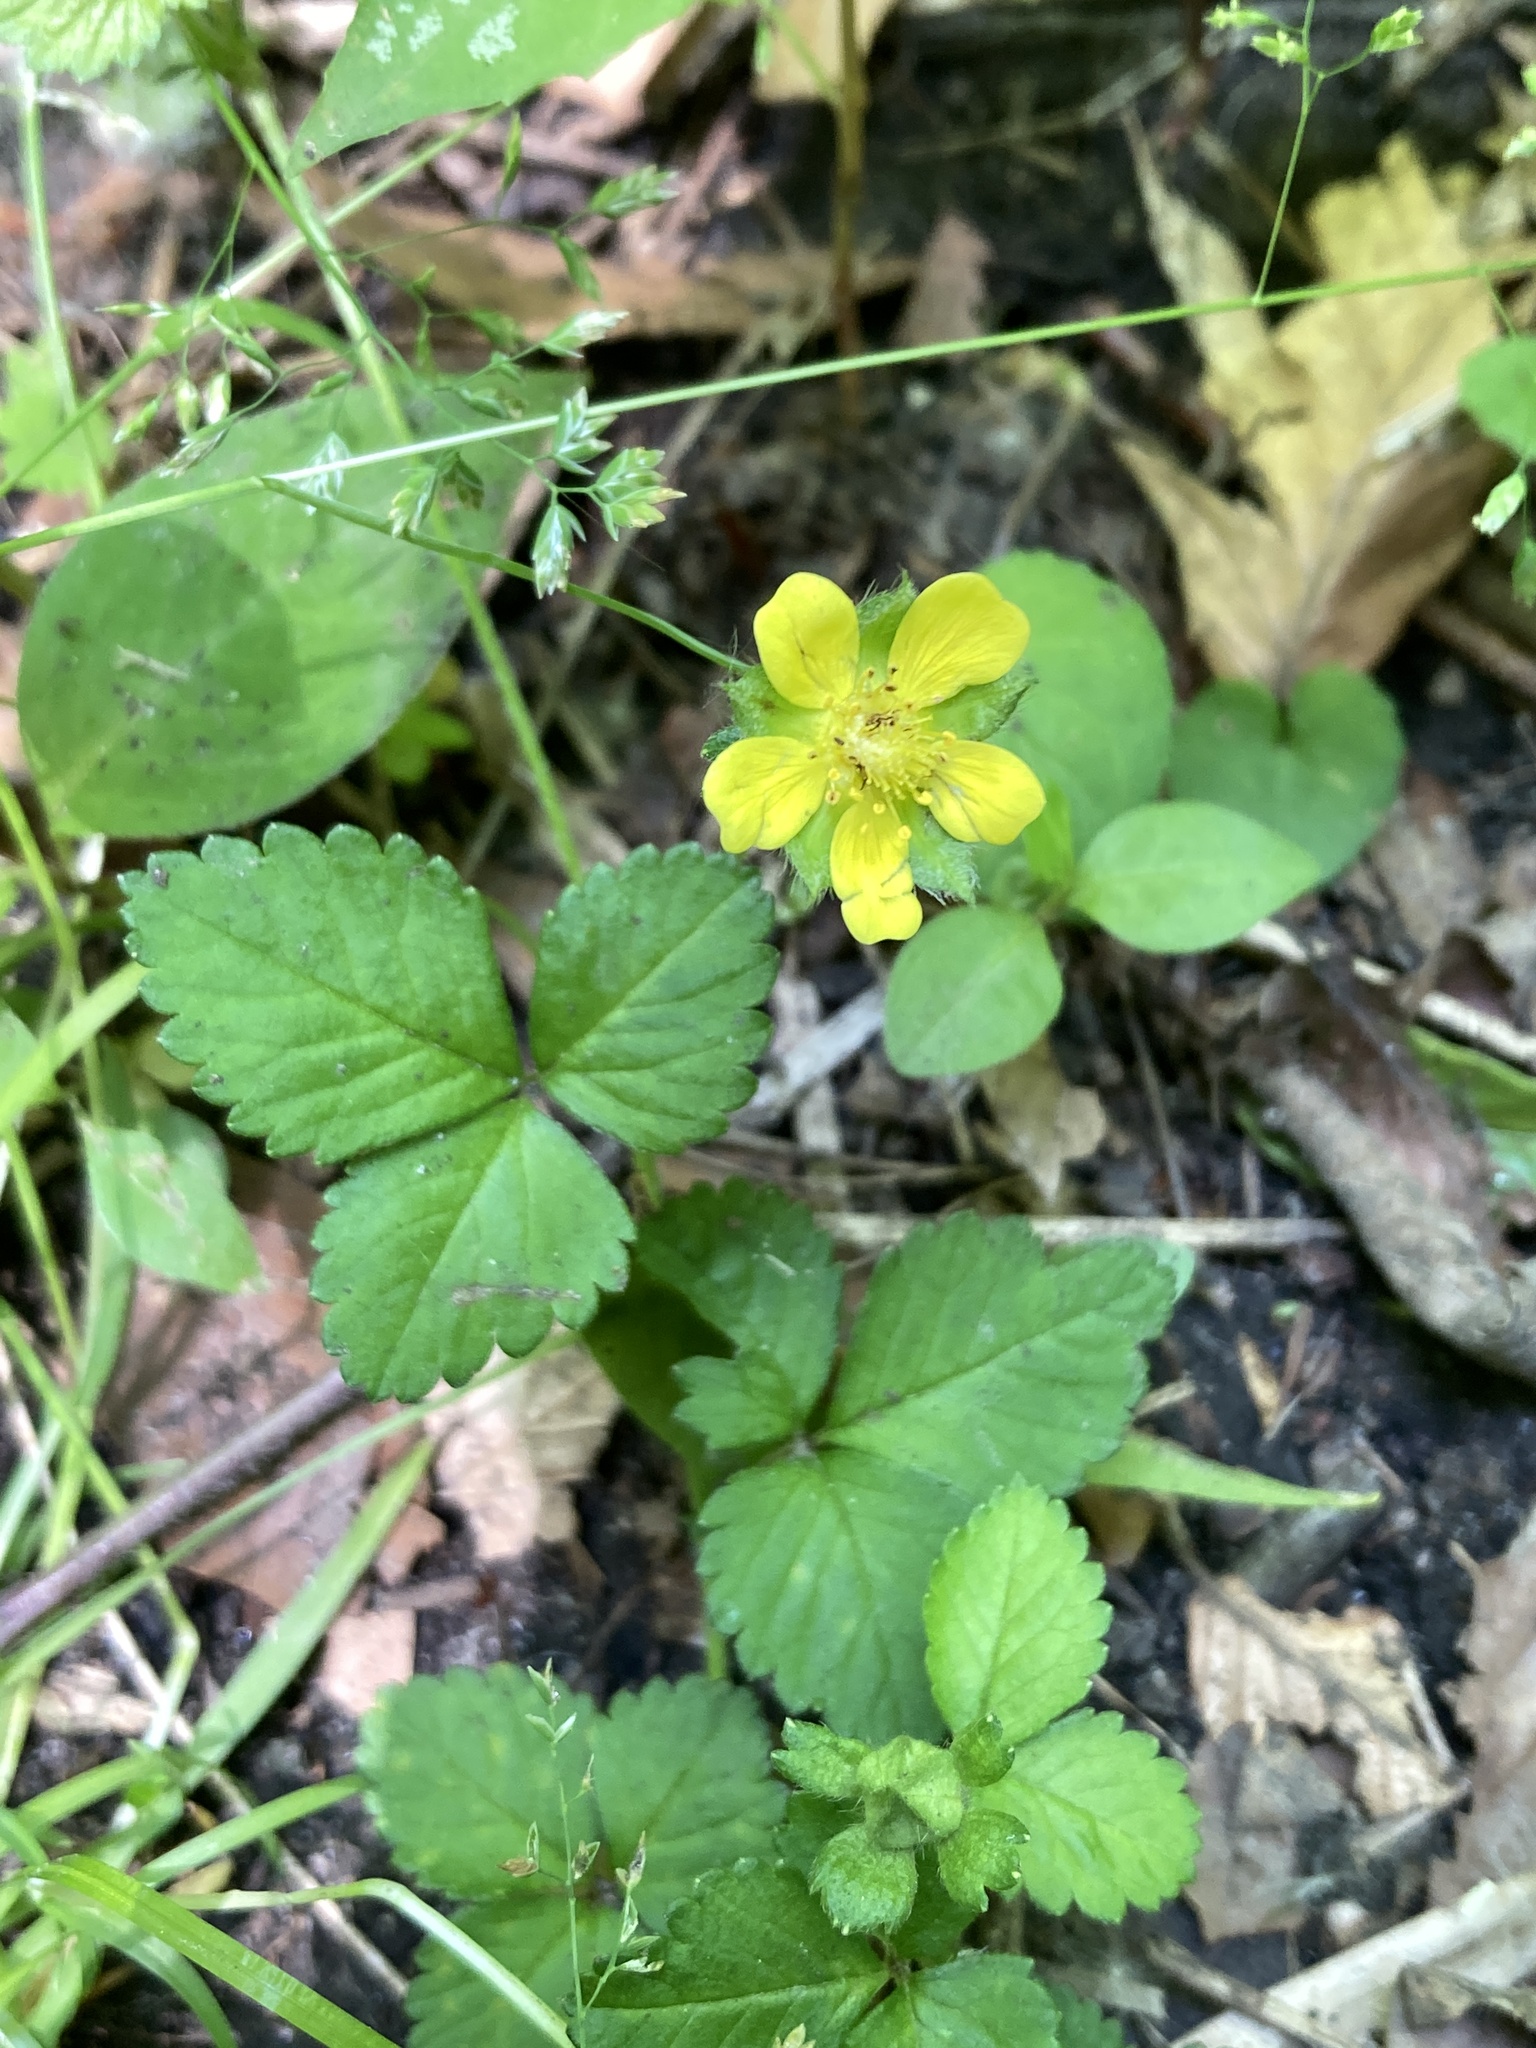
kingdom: Plantae
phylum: Tracheophyta
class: Magnoliopsida
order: Rosales
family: Rosaceae
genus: Potentilla
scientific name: Potentilla indica
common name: Yellow-flowered strawberry
